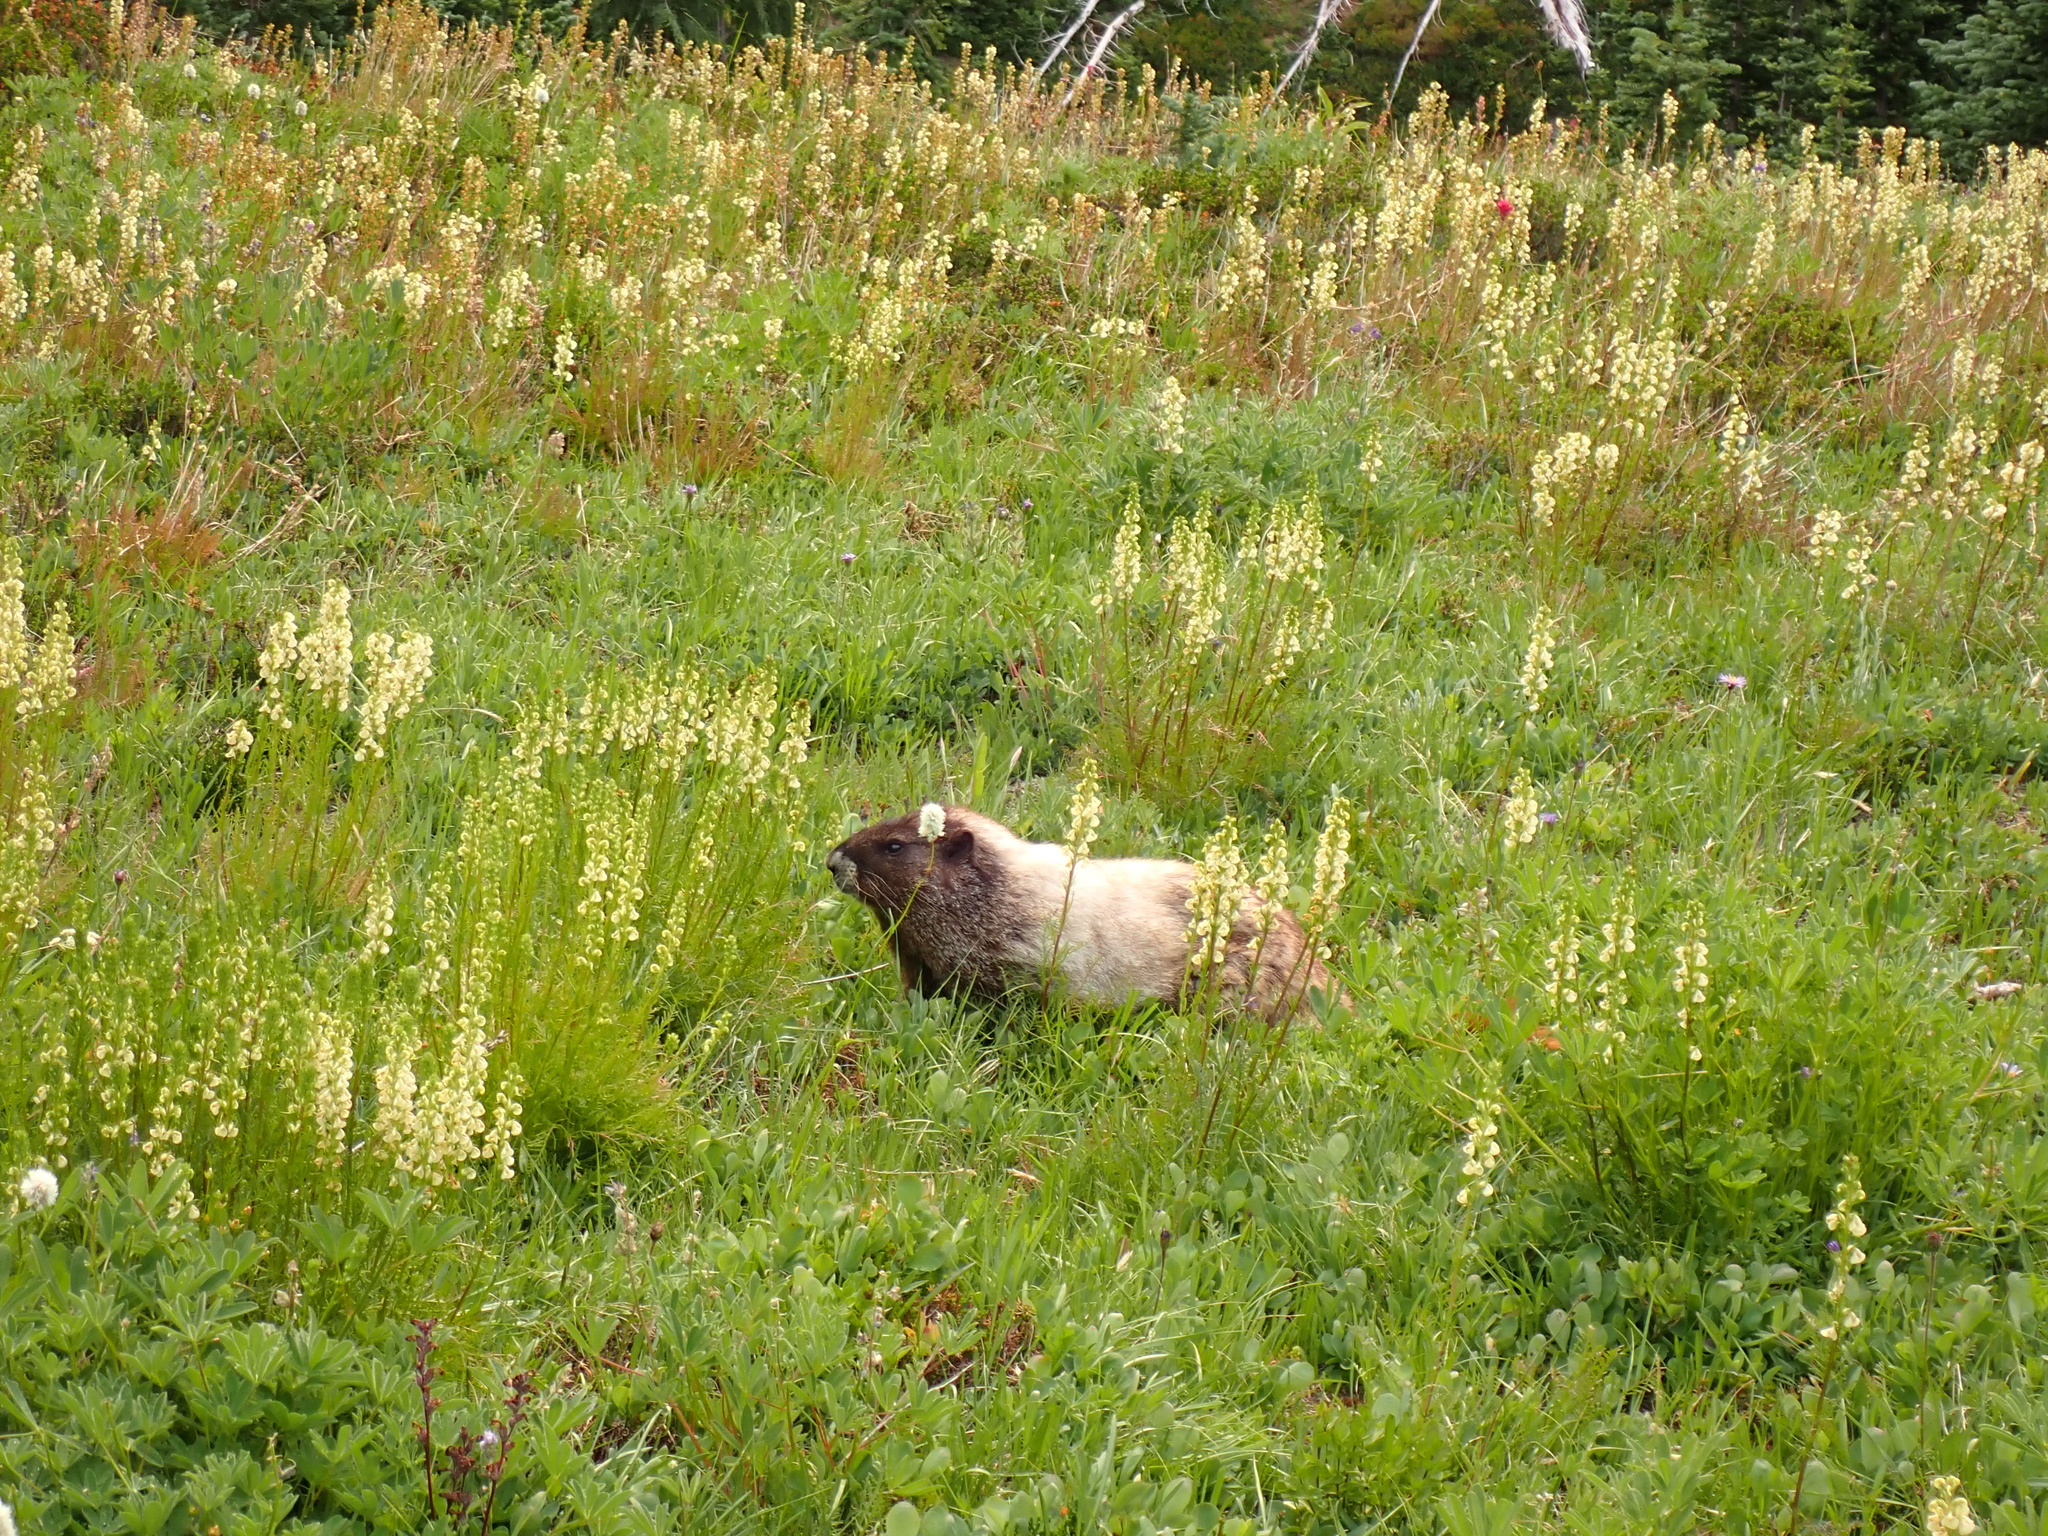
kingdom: Animalia
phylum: Chordata
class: Mammalia
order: Rodentia
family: Sciuridae
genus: Marmota
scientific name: Marmota caligata
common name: Hoary marmot
